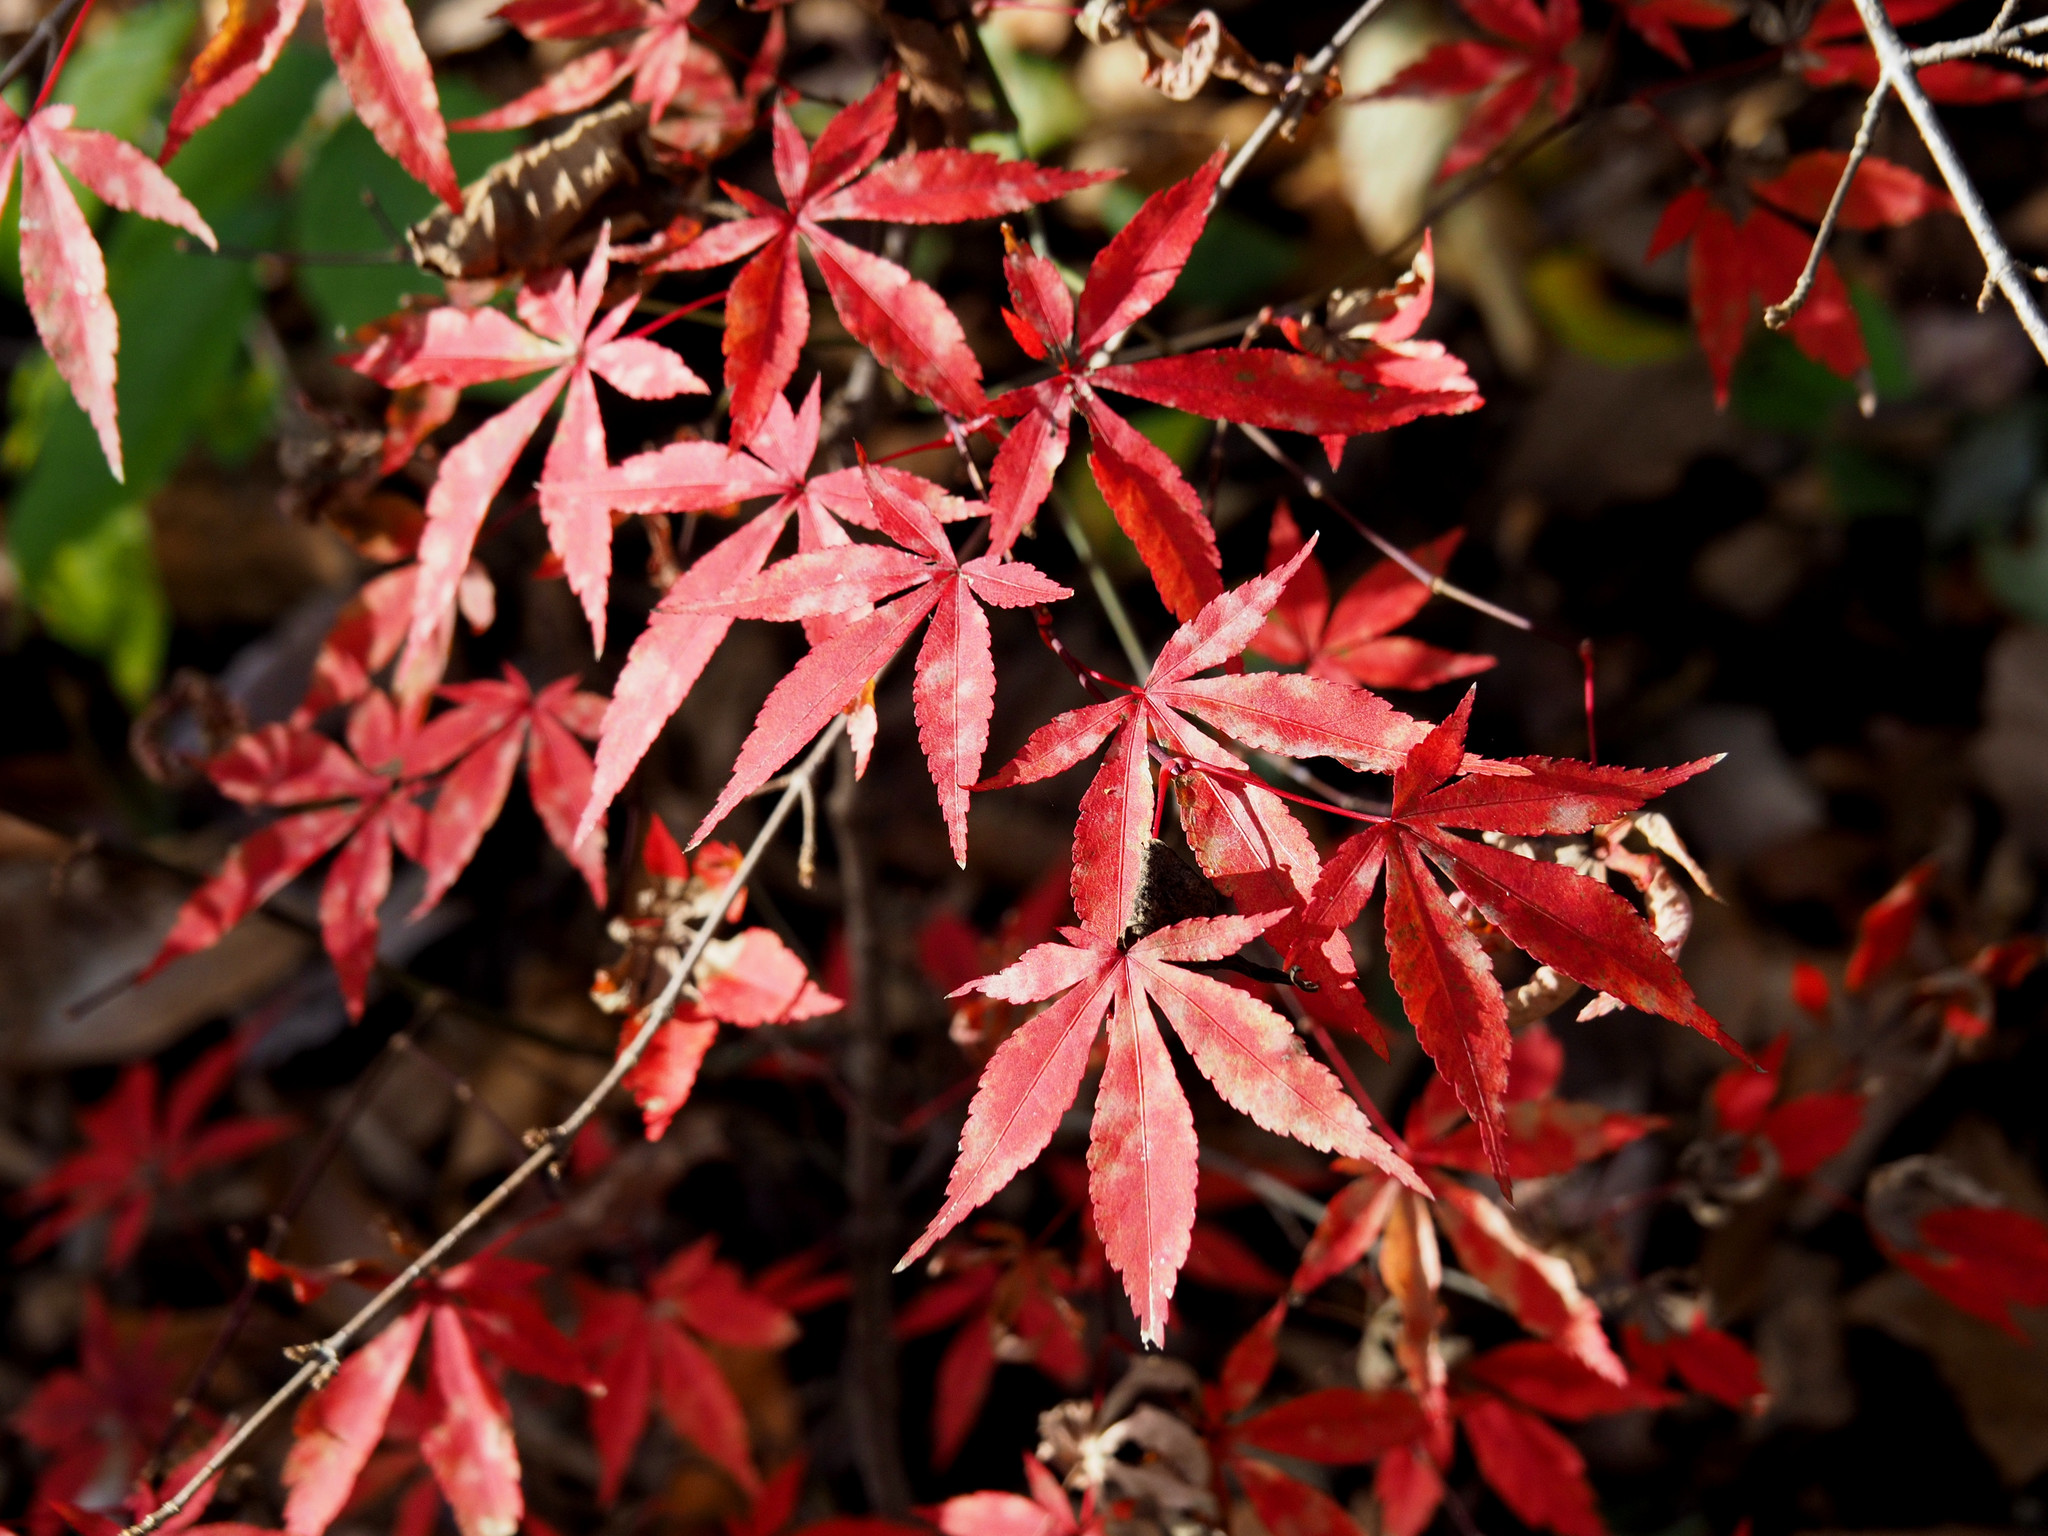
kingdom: Plantae
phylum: Tracheophyta
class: Magnoliopsida
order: Sapindales
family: Sapindaceae
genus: Acer
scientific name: Acer palmatum
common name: Japanese maple
